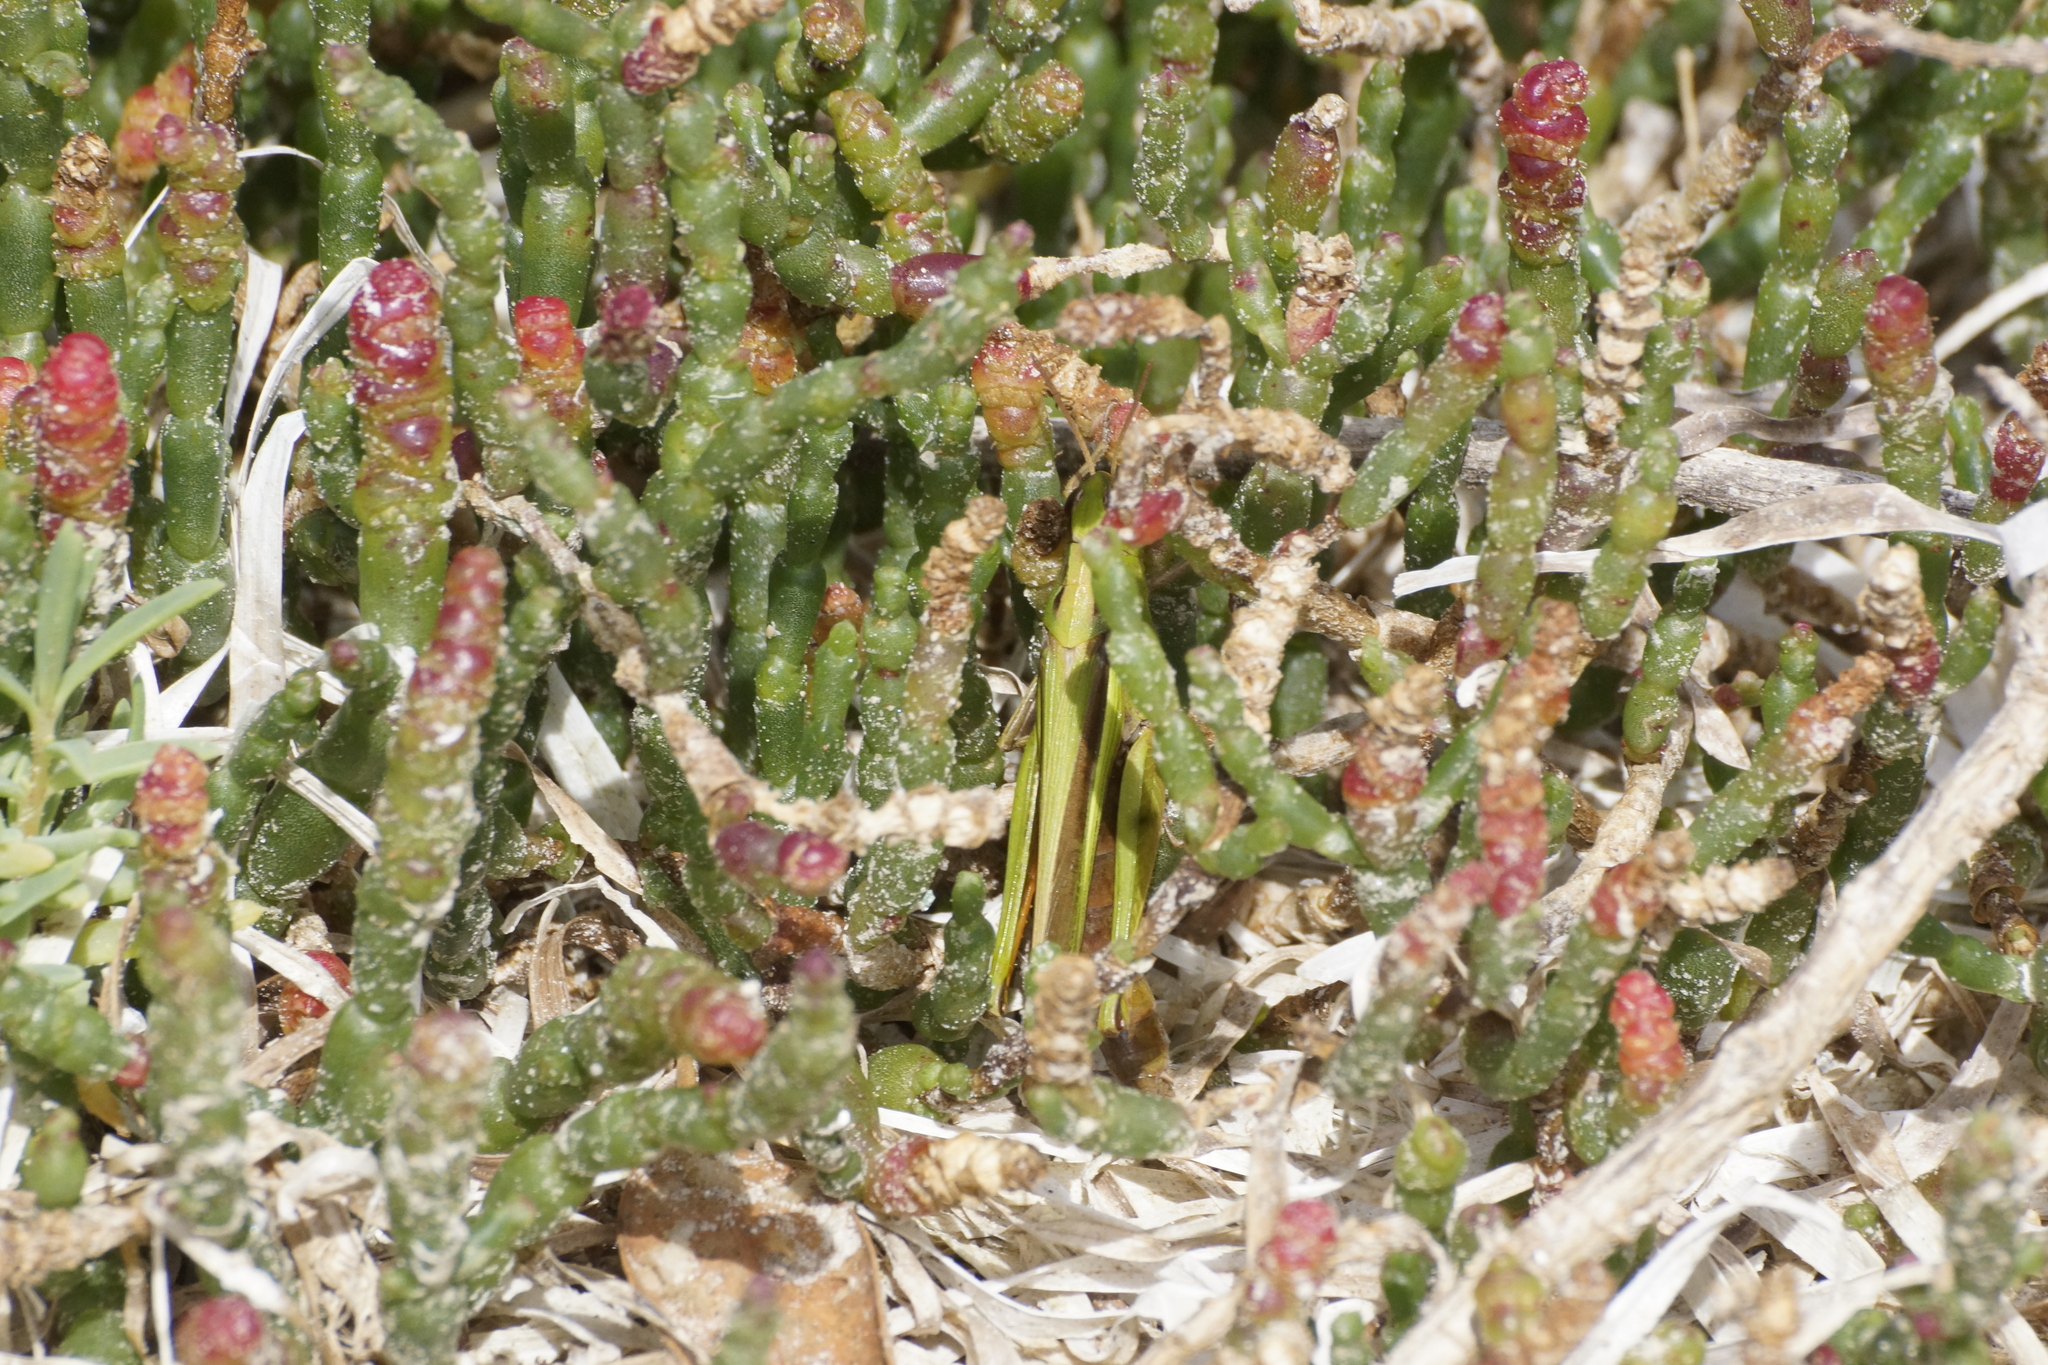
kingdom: Animalia
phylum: Arthropoda
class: Insecta
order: Orthoptera
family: Acrididae
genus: Schizobothrus
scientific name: Schizobothrus flavovittatus
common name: Disappearing grasshopper
